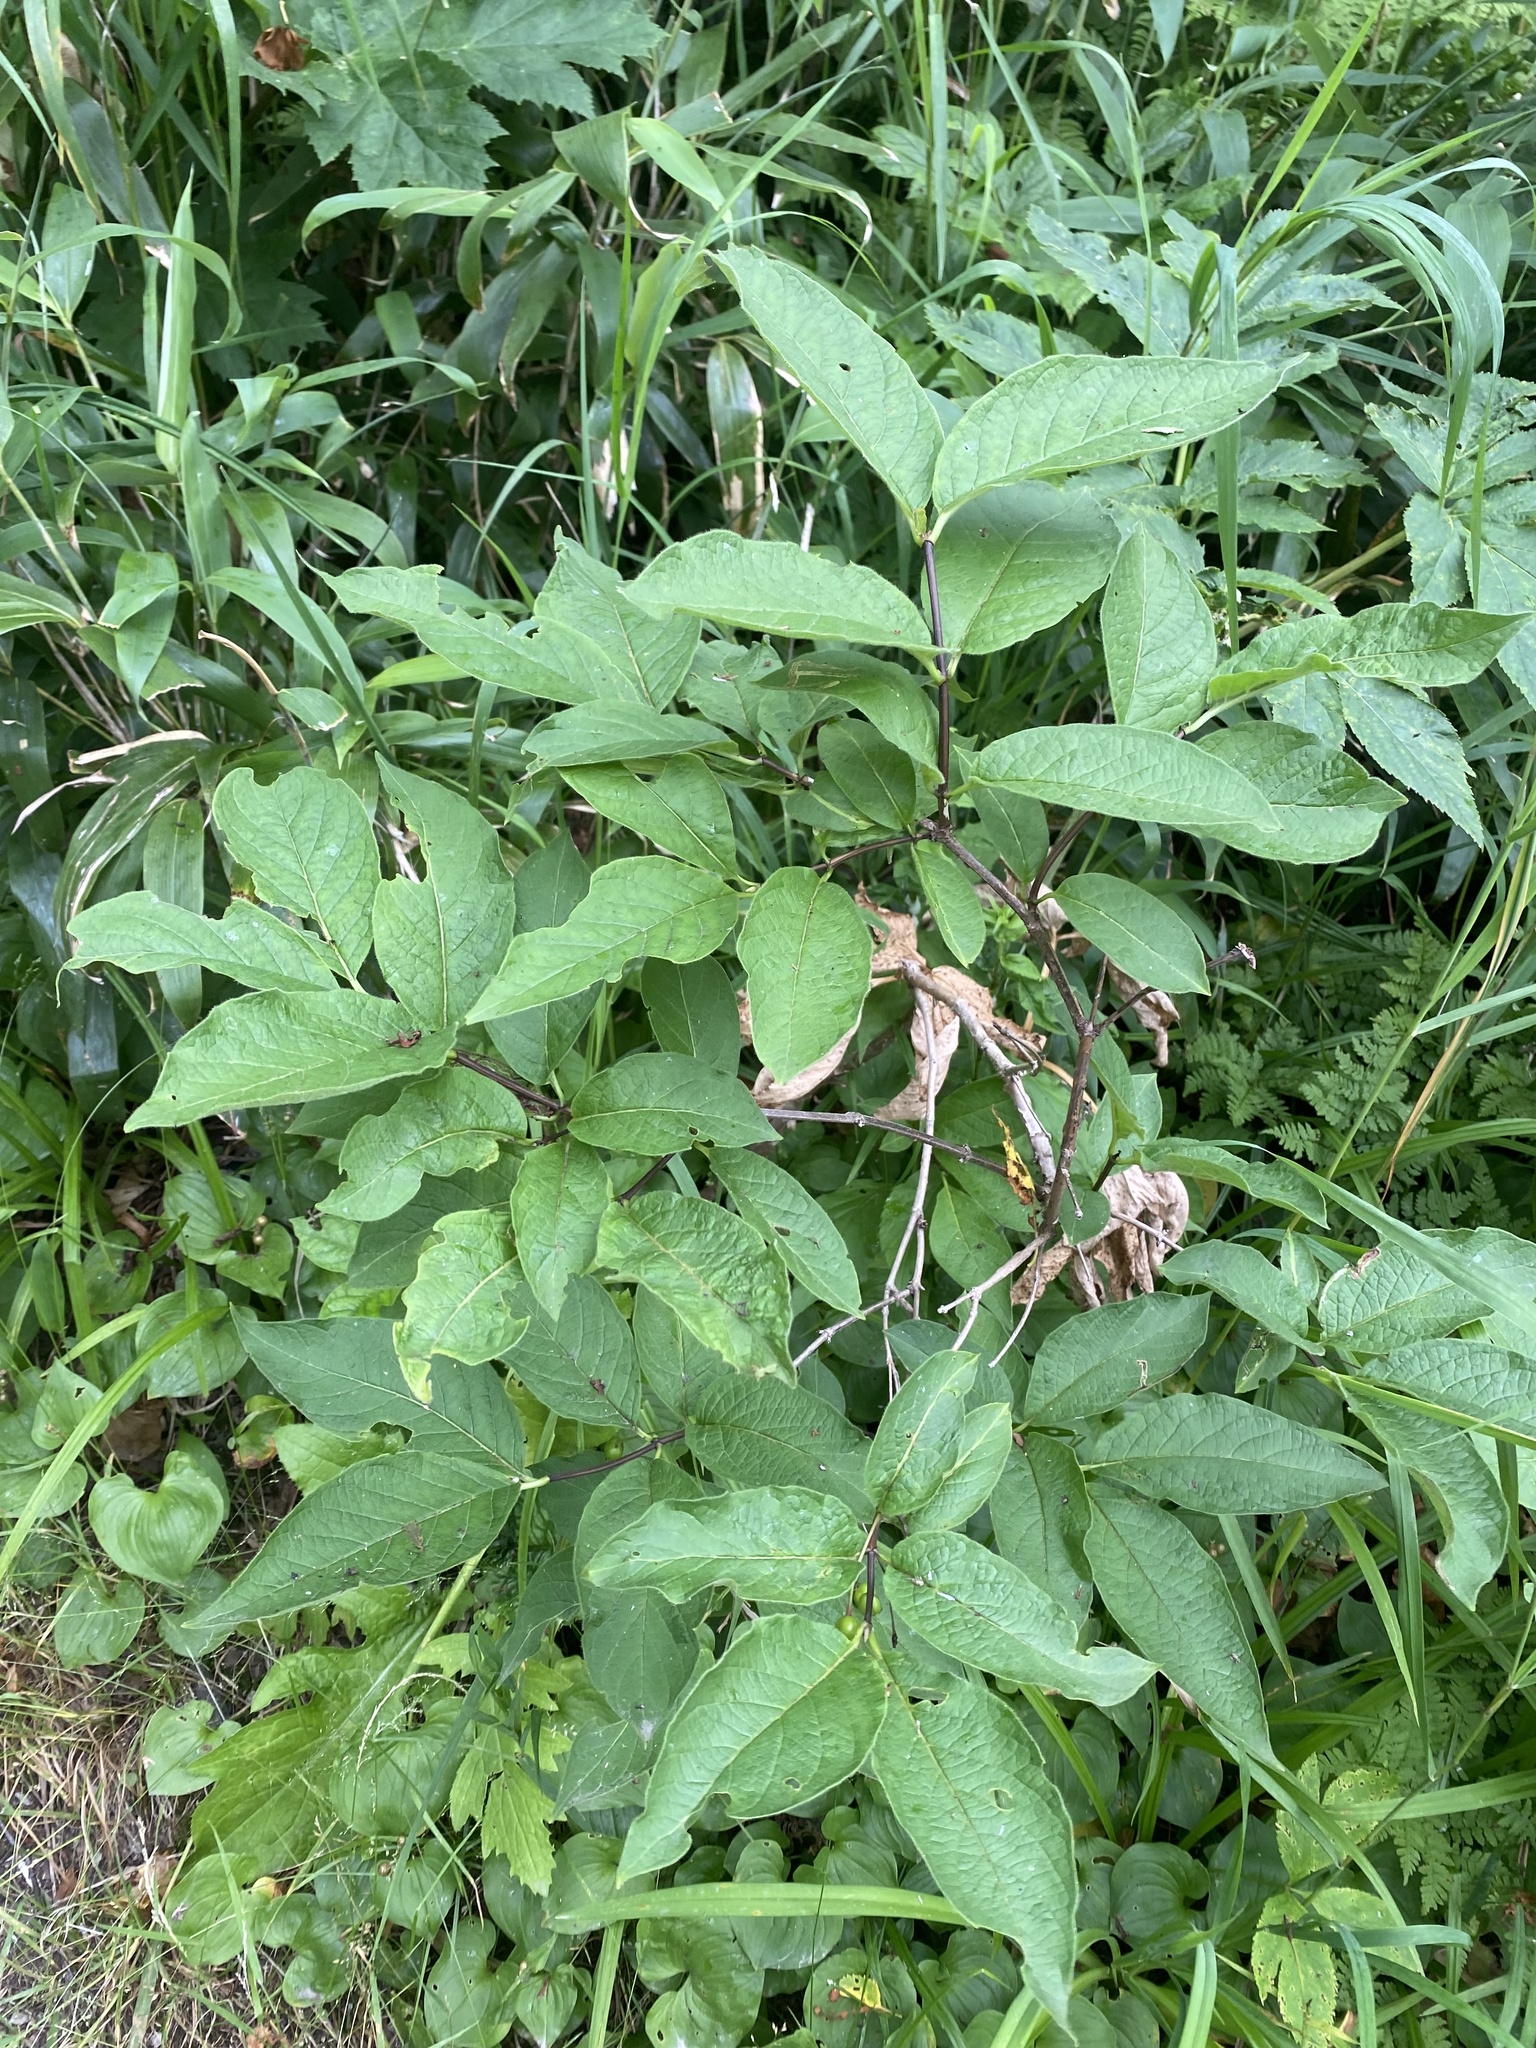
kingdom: Plantae
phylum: Tracheophyta
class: Magnoliopsida
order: Dipsacales
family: Caprifoliaceae
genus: Lonicera
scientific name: Lonicera glehnii
